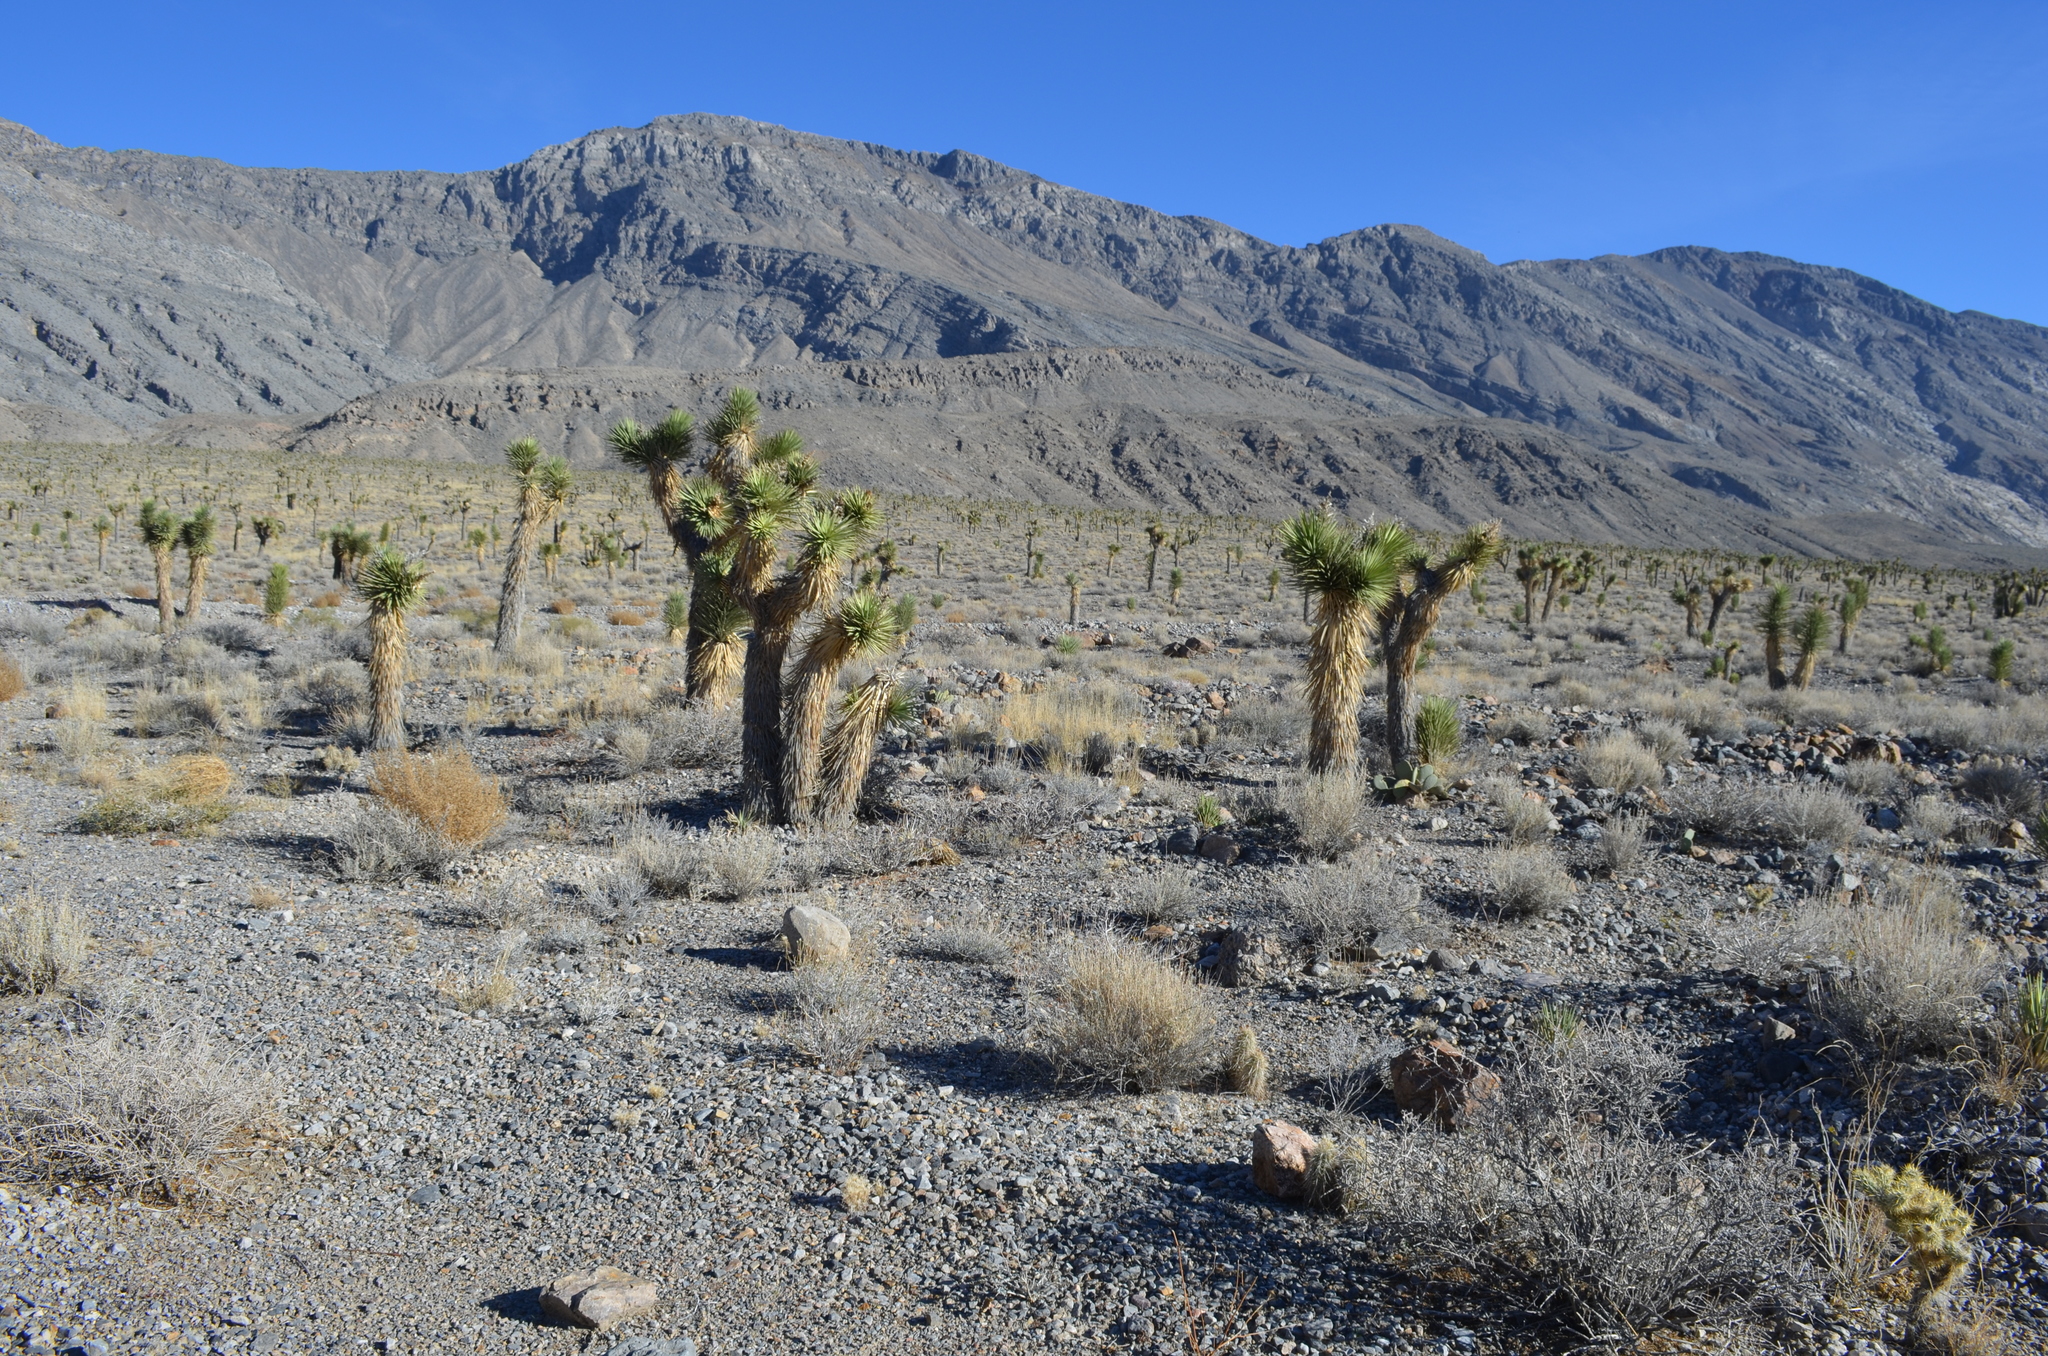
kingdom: Plantae
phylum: Tracheophyta
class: Liliopsida
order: Asparagales
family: Asparagaceae
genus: Yucca
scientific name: Yucca brevifolia
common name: Joshua tree
